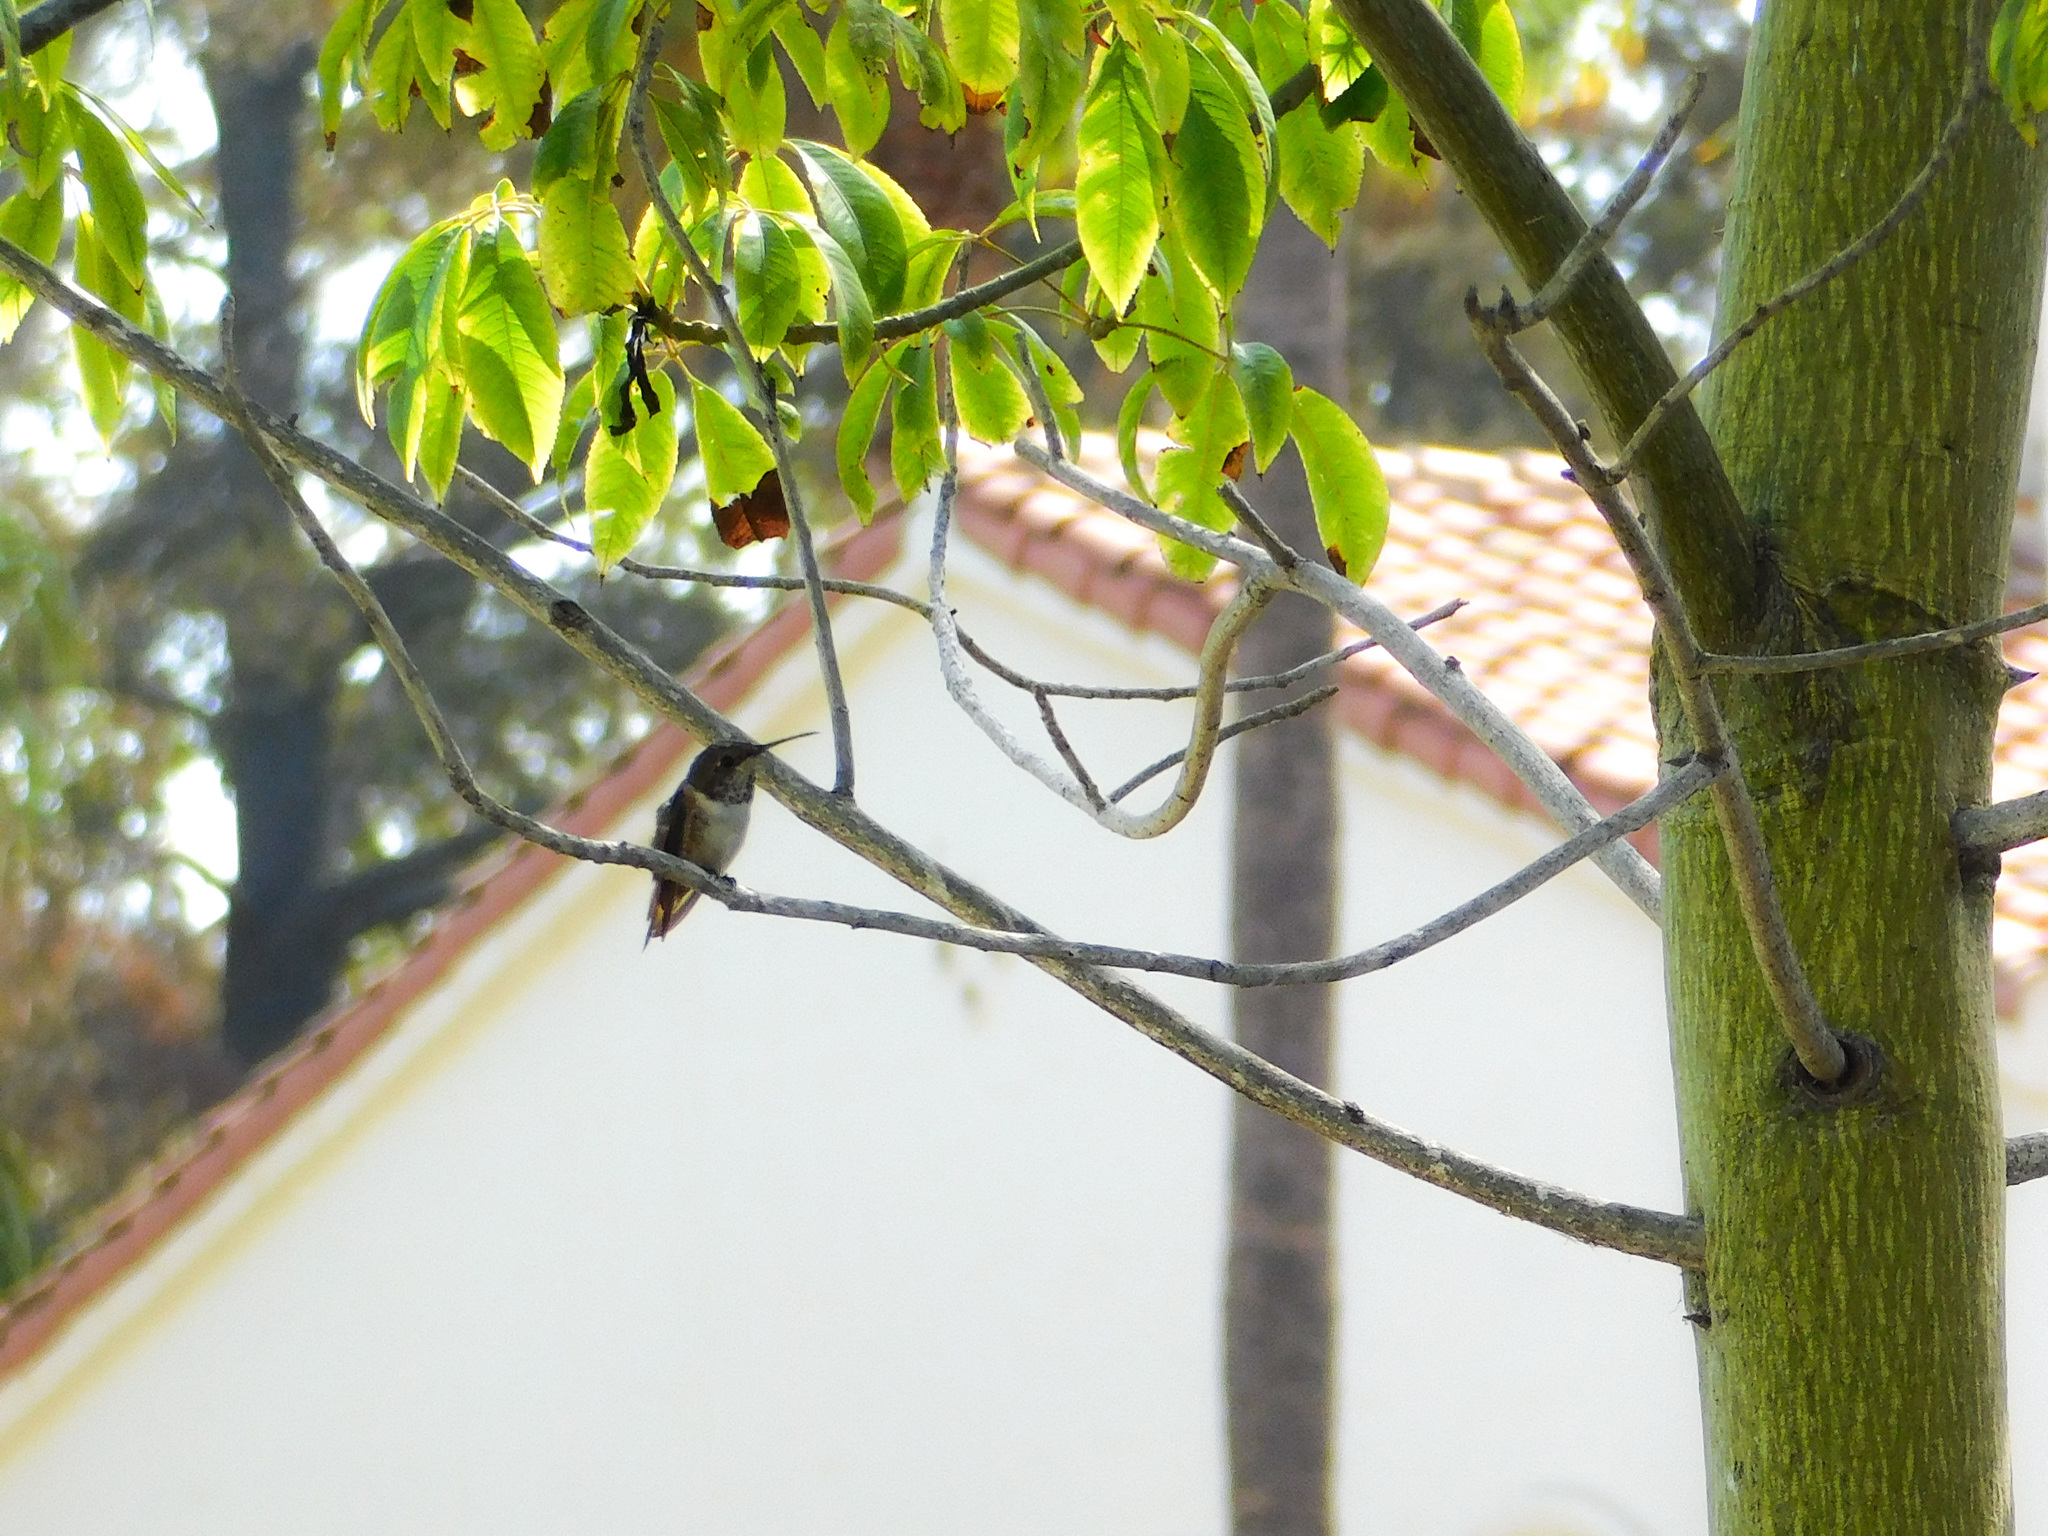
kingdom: Animalia
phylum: Chordata
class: Aves
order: Apodiformes
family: Trochilidae
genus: Selasphorus
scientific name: Selasphorus sasin
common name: Allen's hummingbird
